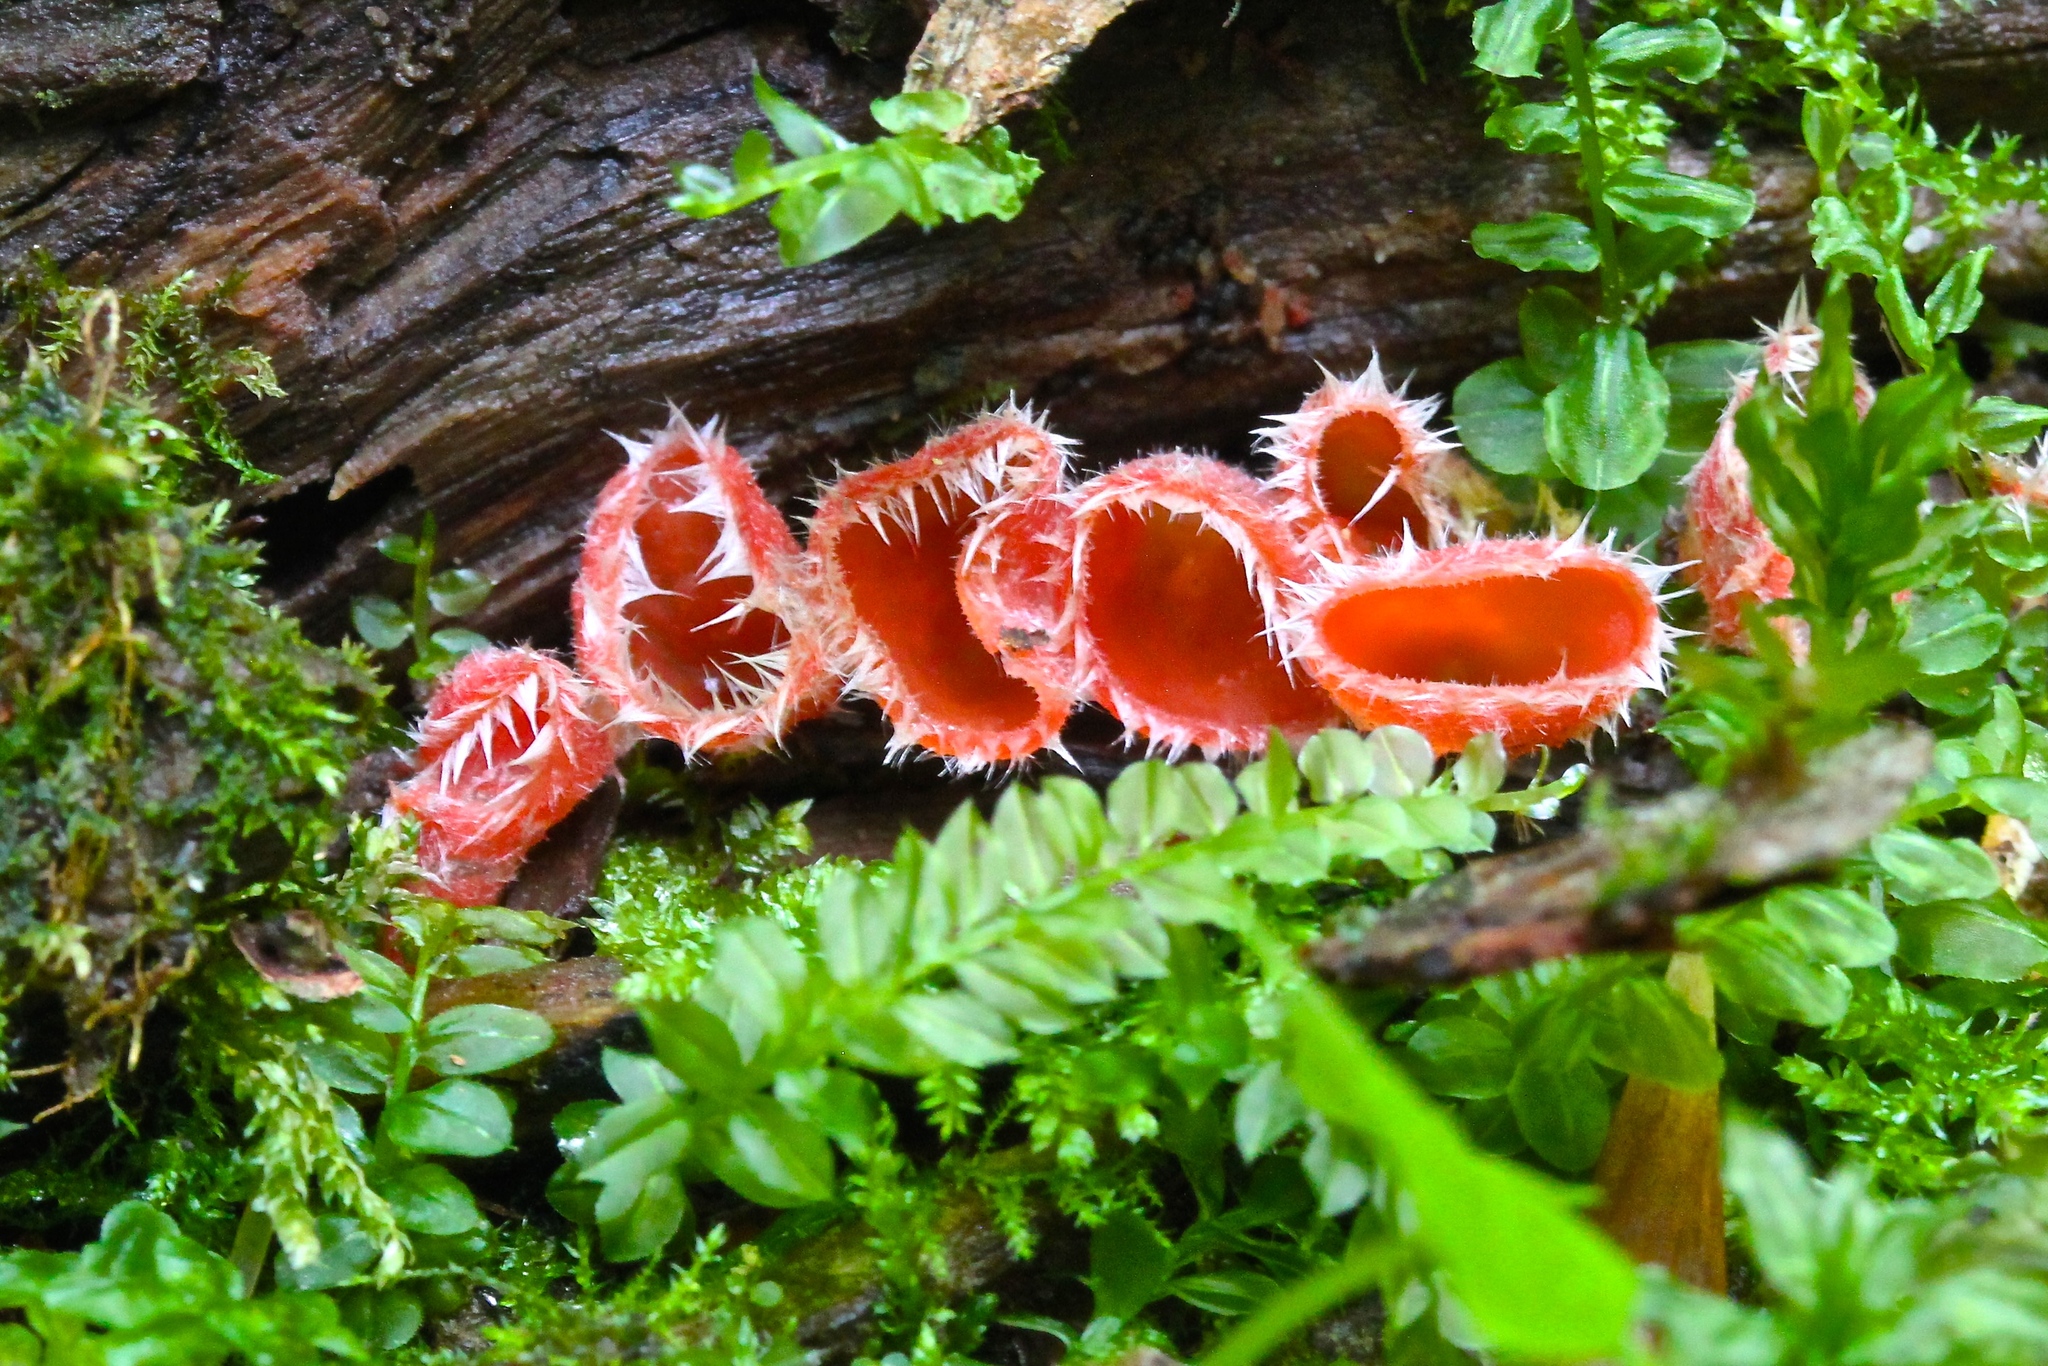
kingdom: Fungi
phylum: Ascomycota
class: Pezizomycetes
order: Pezizales
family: Sarcoscyphaceae
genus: Microstoma
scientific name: Microstoma floccosum
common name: Pink fringed faery cup
